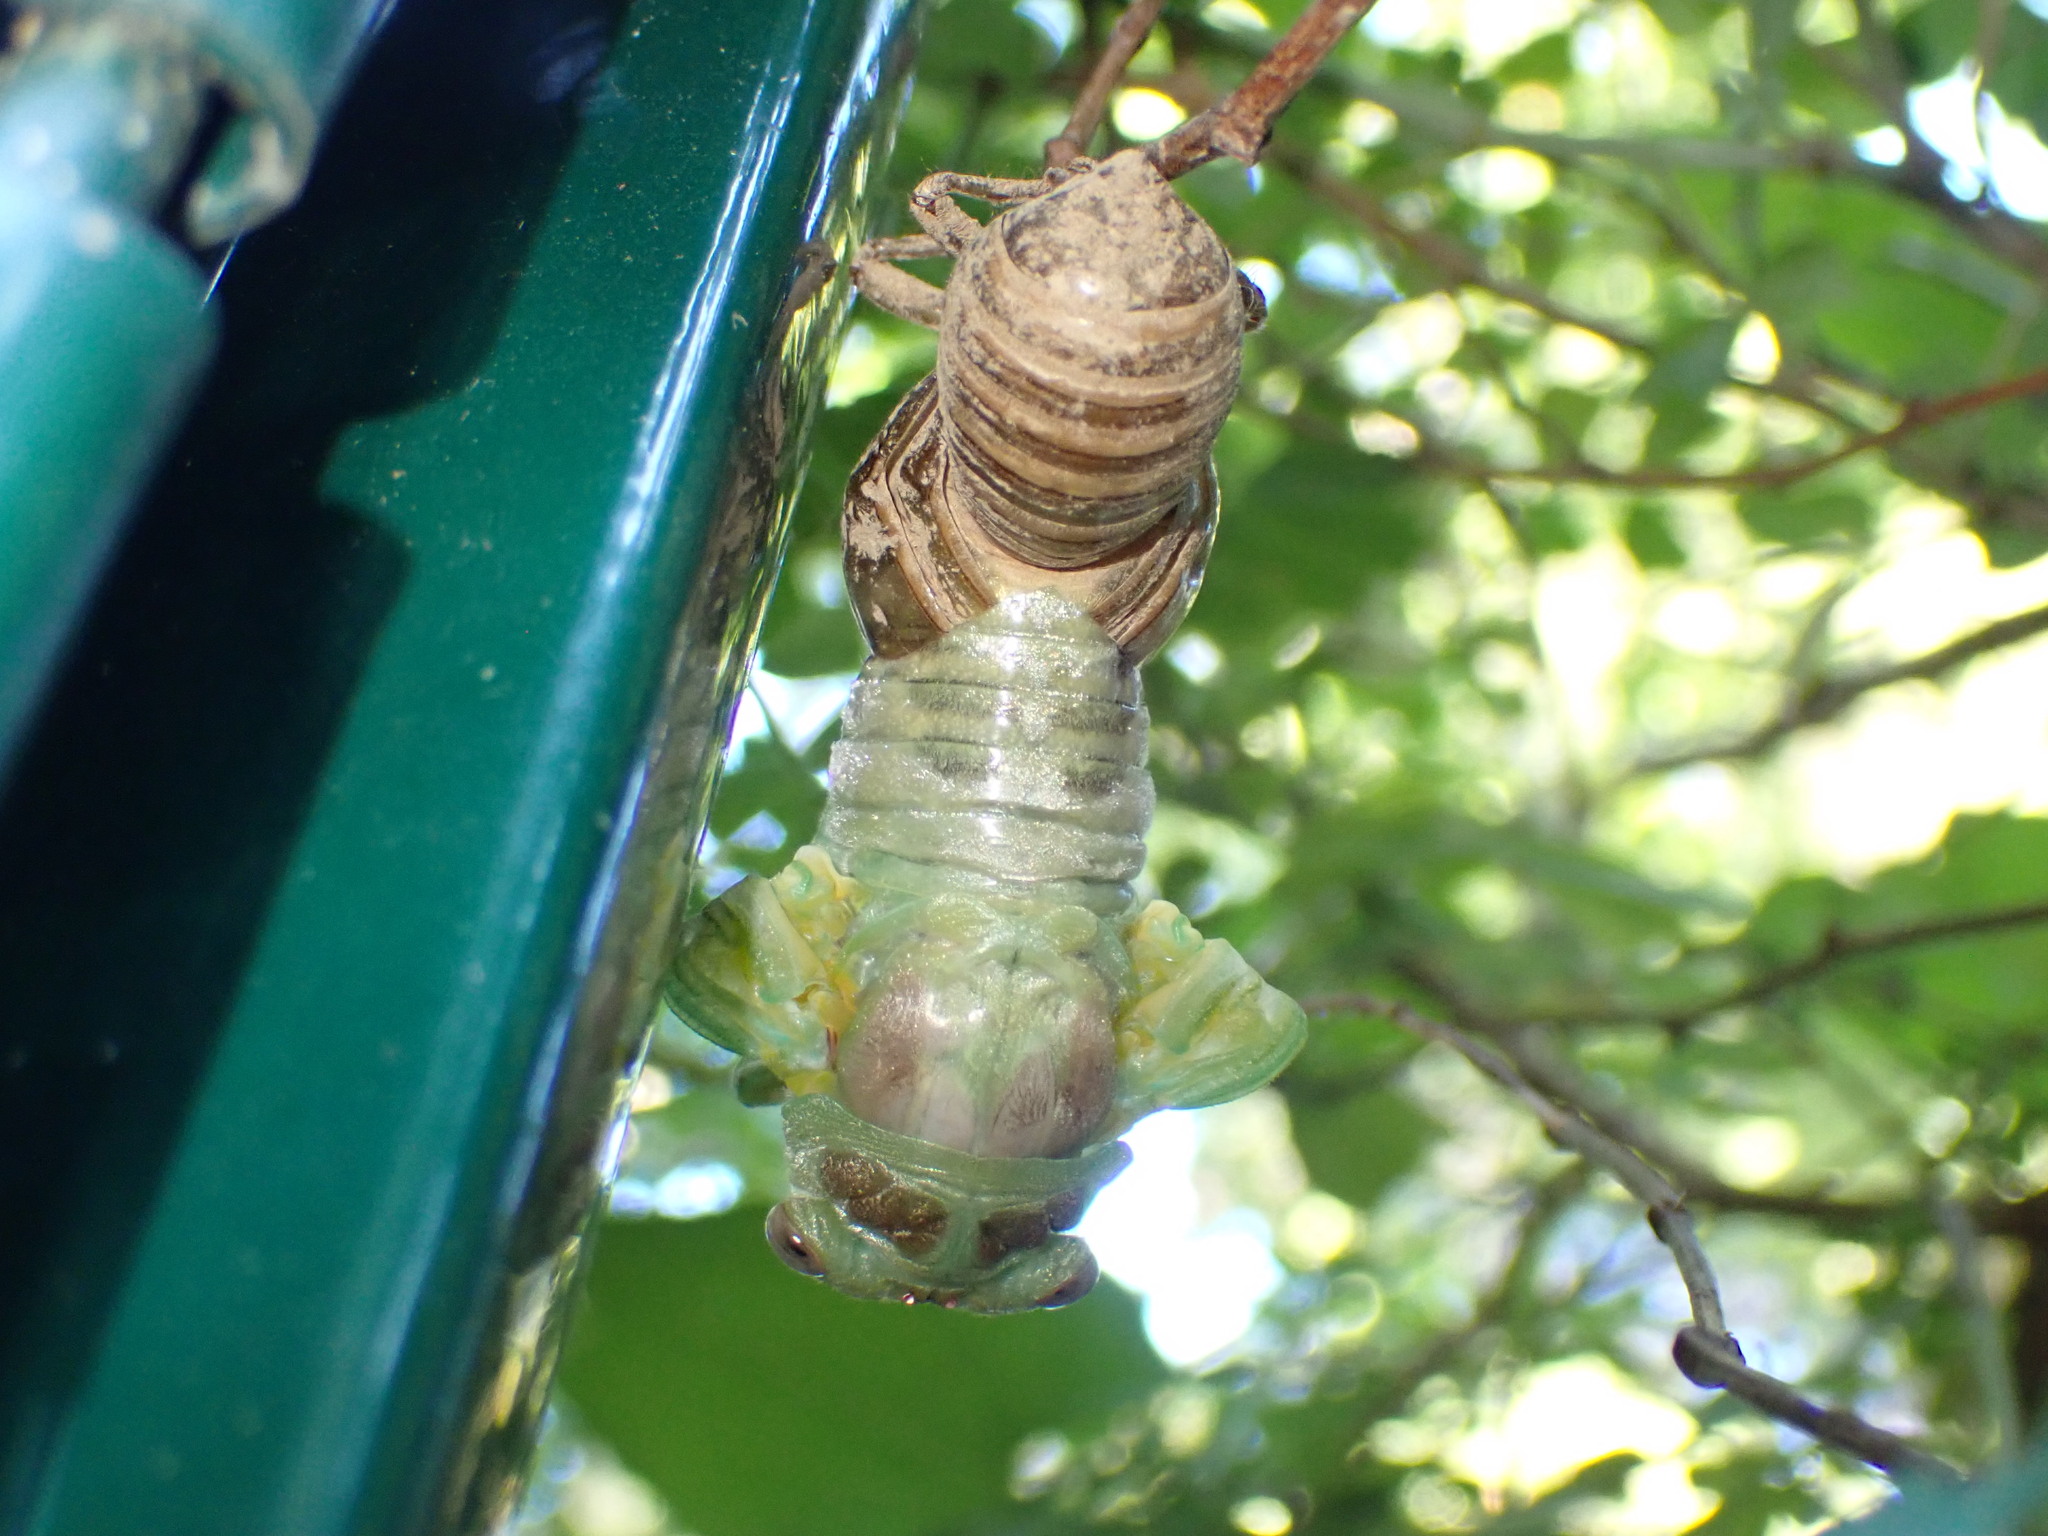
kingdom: Animalia
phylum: Arthropoda
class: Insecta
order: Hemiptera
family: Cicadidae
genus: Lyristes
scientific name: Lyristes plebejus
